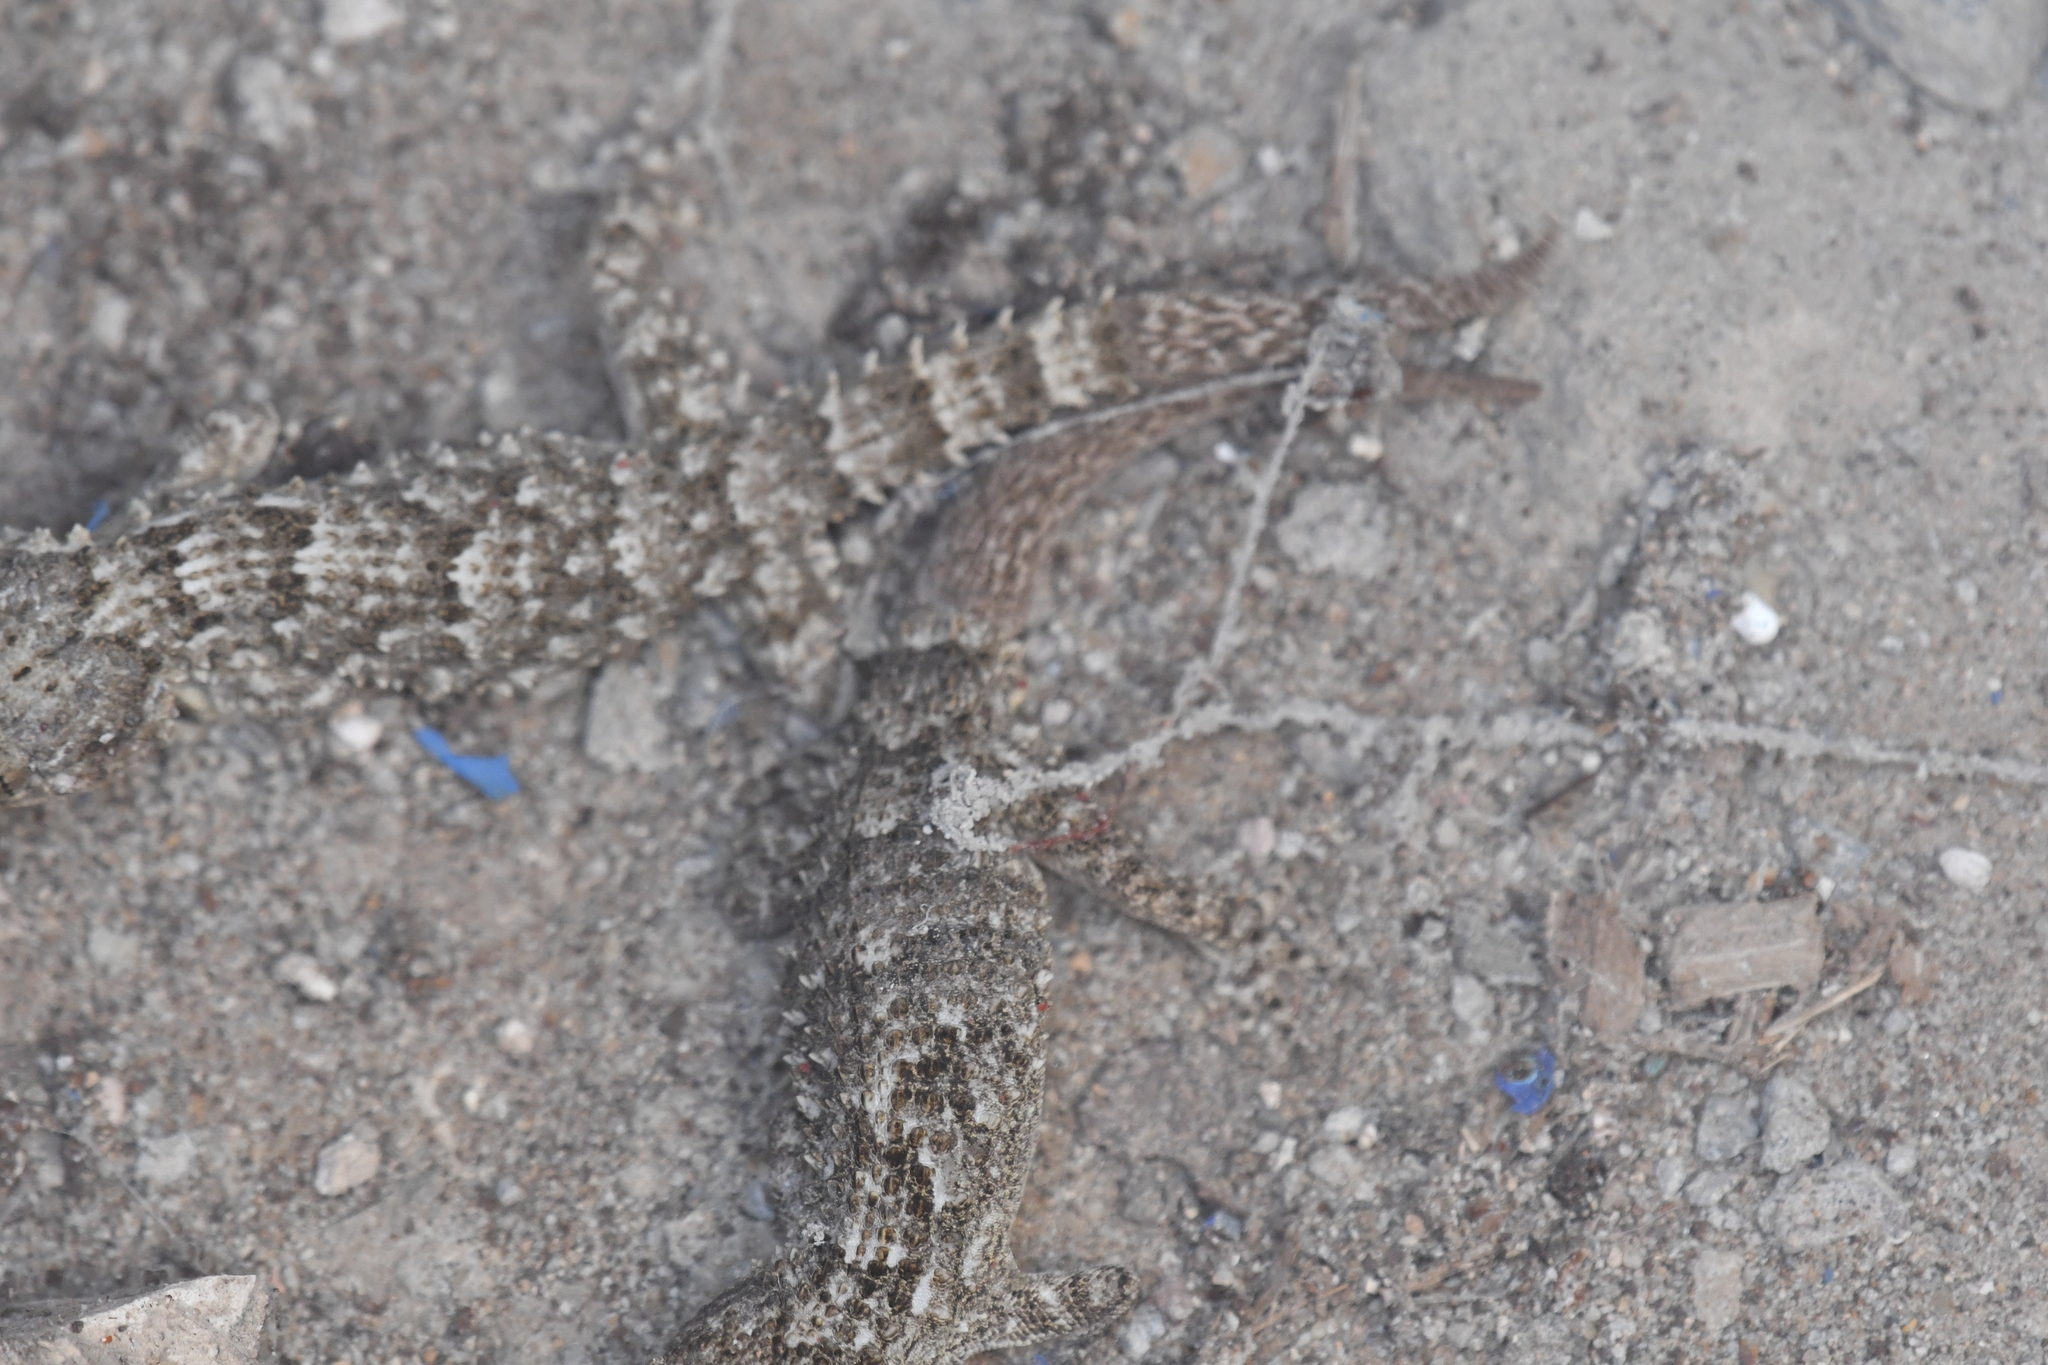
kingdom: Animalia
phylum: Chordata
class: Squamata
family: Phyllodactylidae
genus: Tarentola
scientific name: Tarentola mauritanica
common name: Moorish gecko
